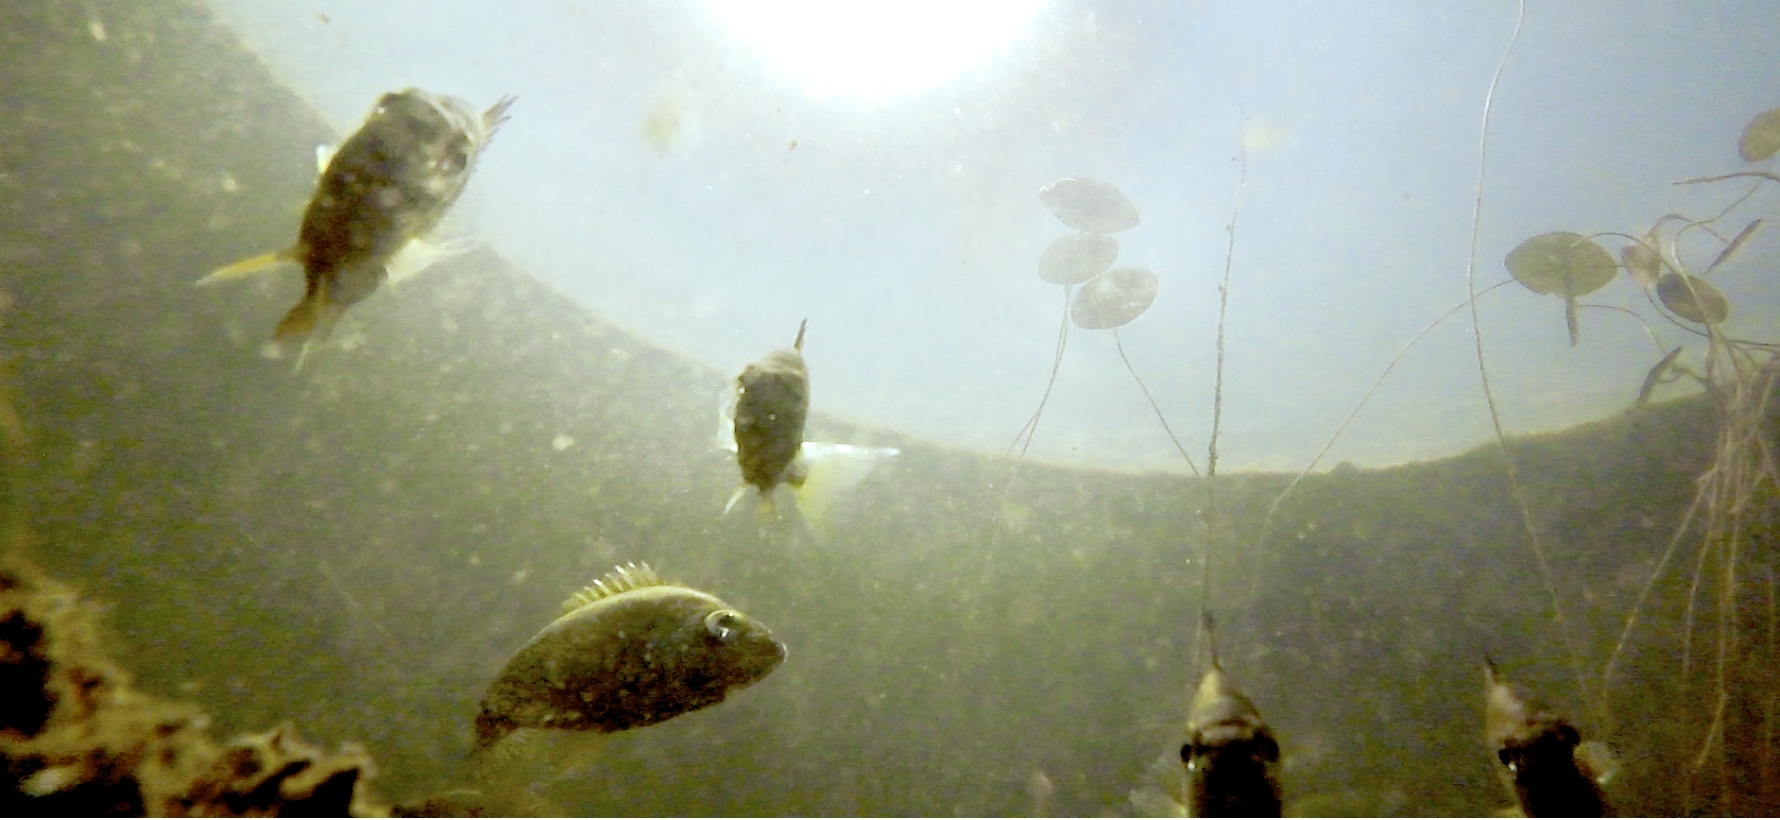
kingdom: Animalia
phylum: Chordata
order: Perciformes
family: Centrarchidae
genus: Lepomis
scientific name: Lepomis gibbosus
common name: Pumpkinseed
